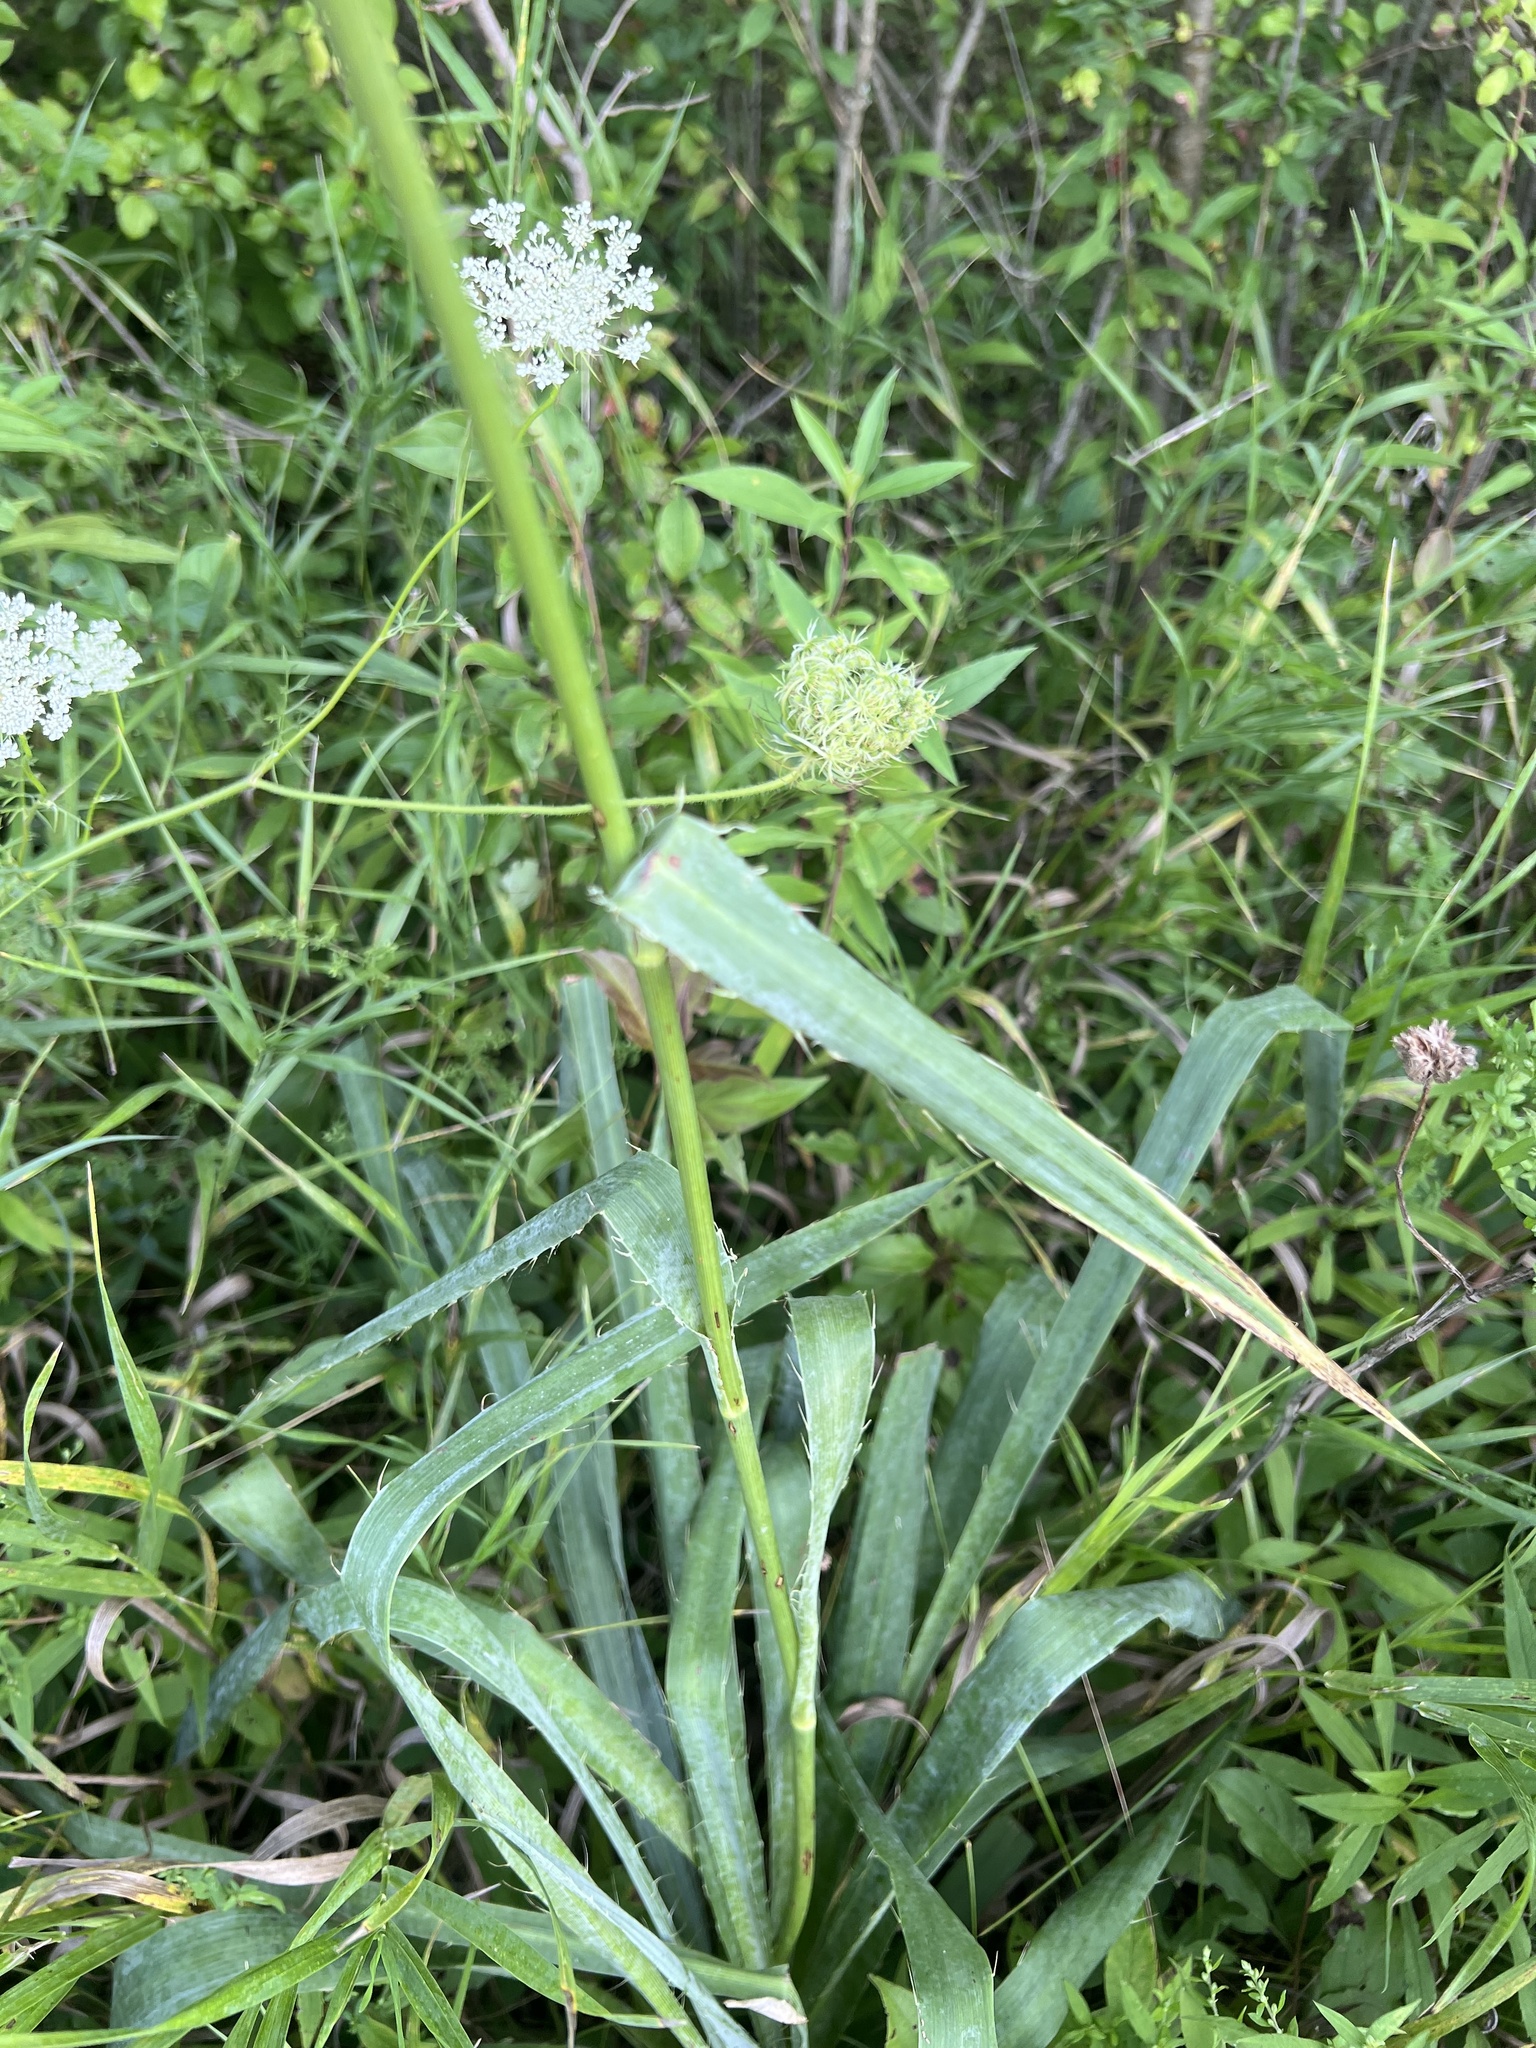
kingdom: Plantae
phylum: Tracheophyta
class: Magnoliopsida
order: Apiales
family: Apiaceae
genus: Eryngium
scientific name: Eryngium yuccifolium
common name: Button eryngo
